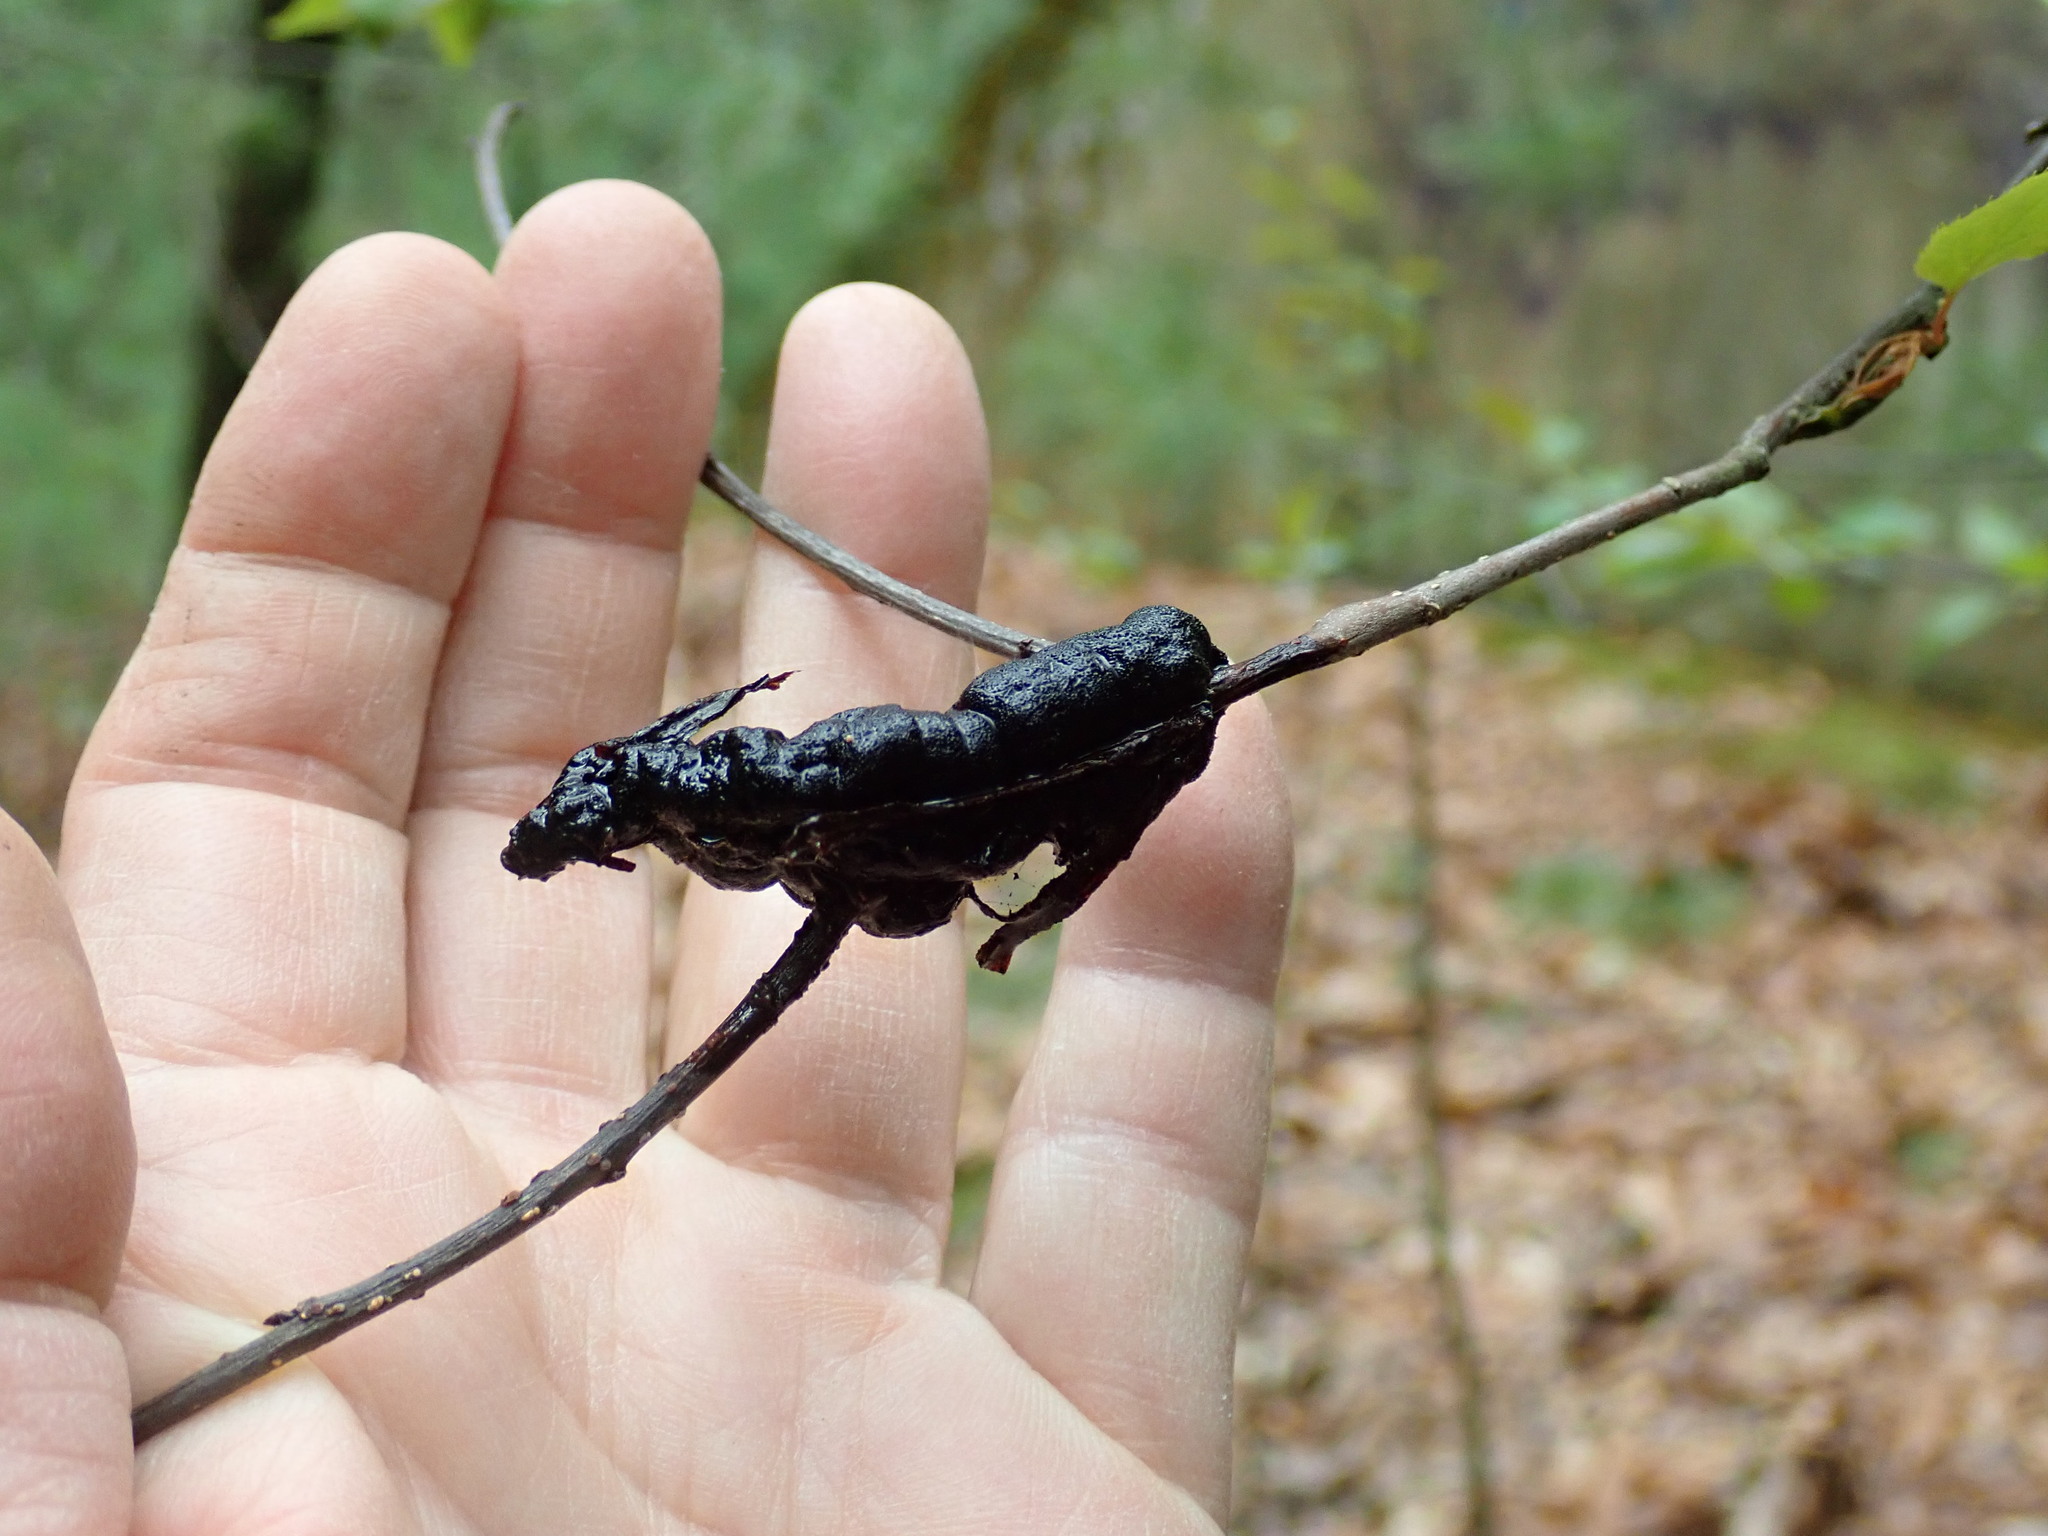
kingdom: Fungi
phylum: Ascomycota
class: Dothideomycetes
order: Venturiales
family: Venturiaceae
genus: Apiosporina
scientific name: Apiosporina morbosa
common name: Black knot
